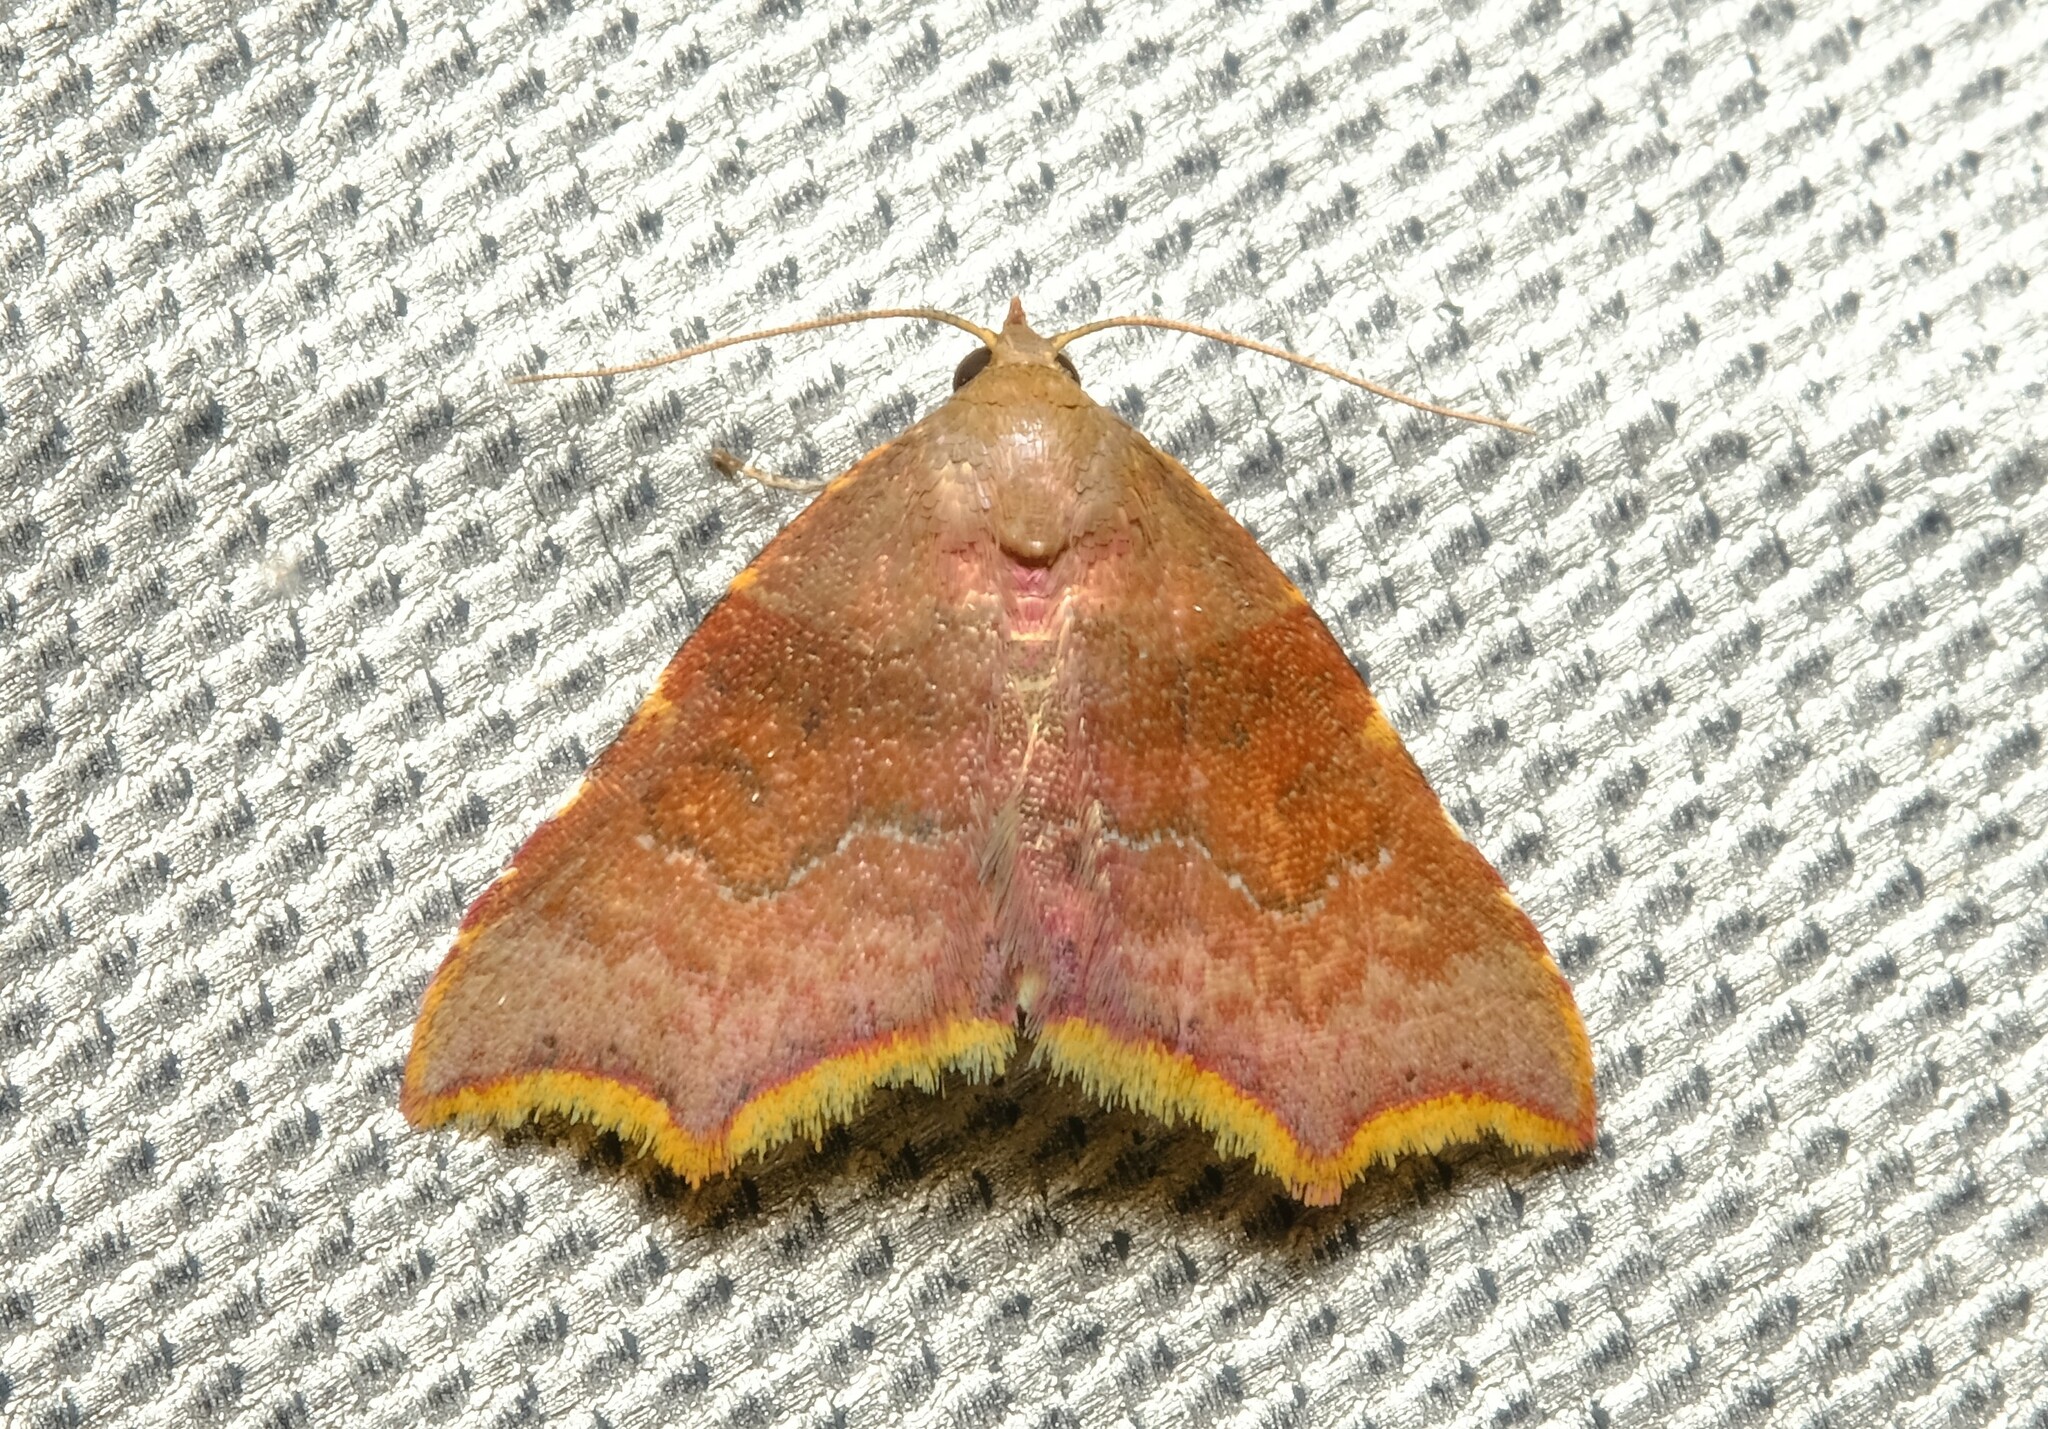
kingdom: Animalia
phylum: Arthropoda
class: Insecta
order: Lepidoptera
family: Erebidae
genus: Corgatha
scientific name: Corgatha omopis
